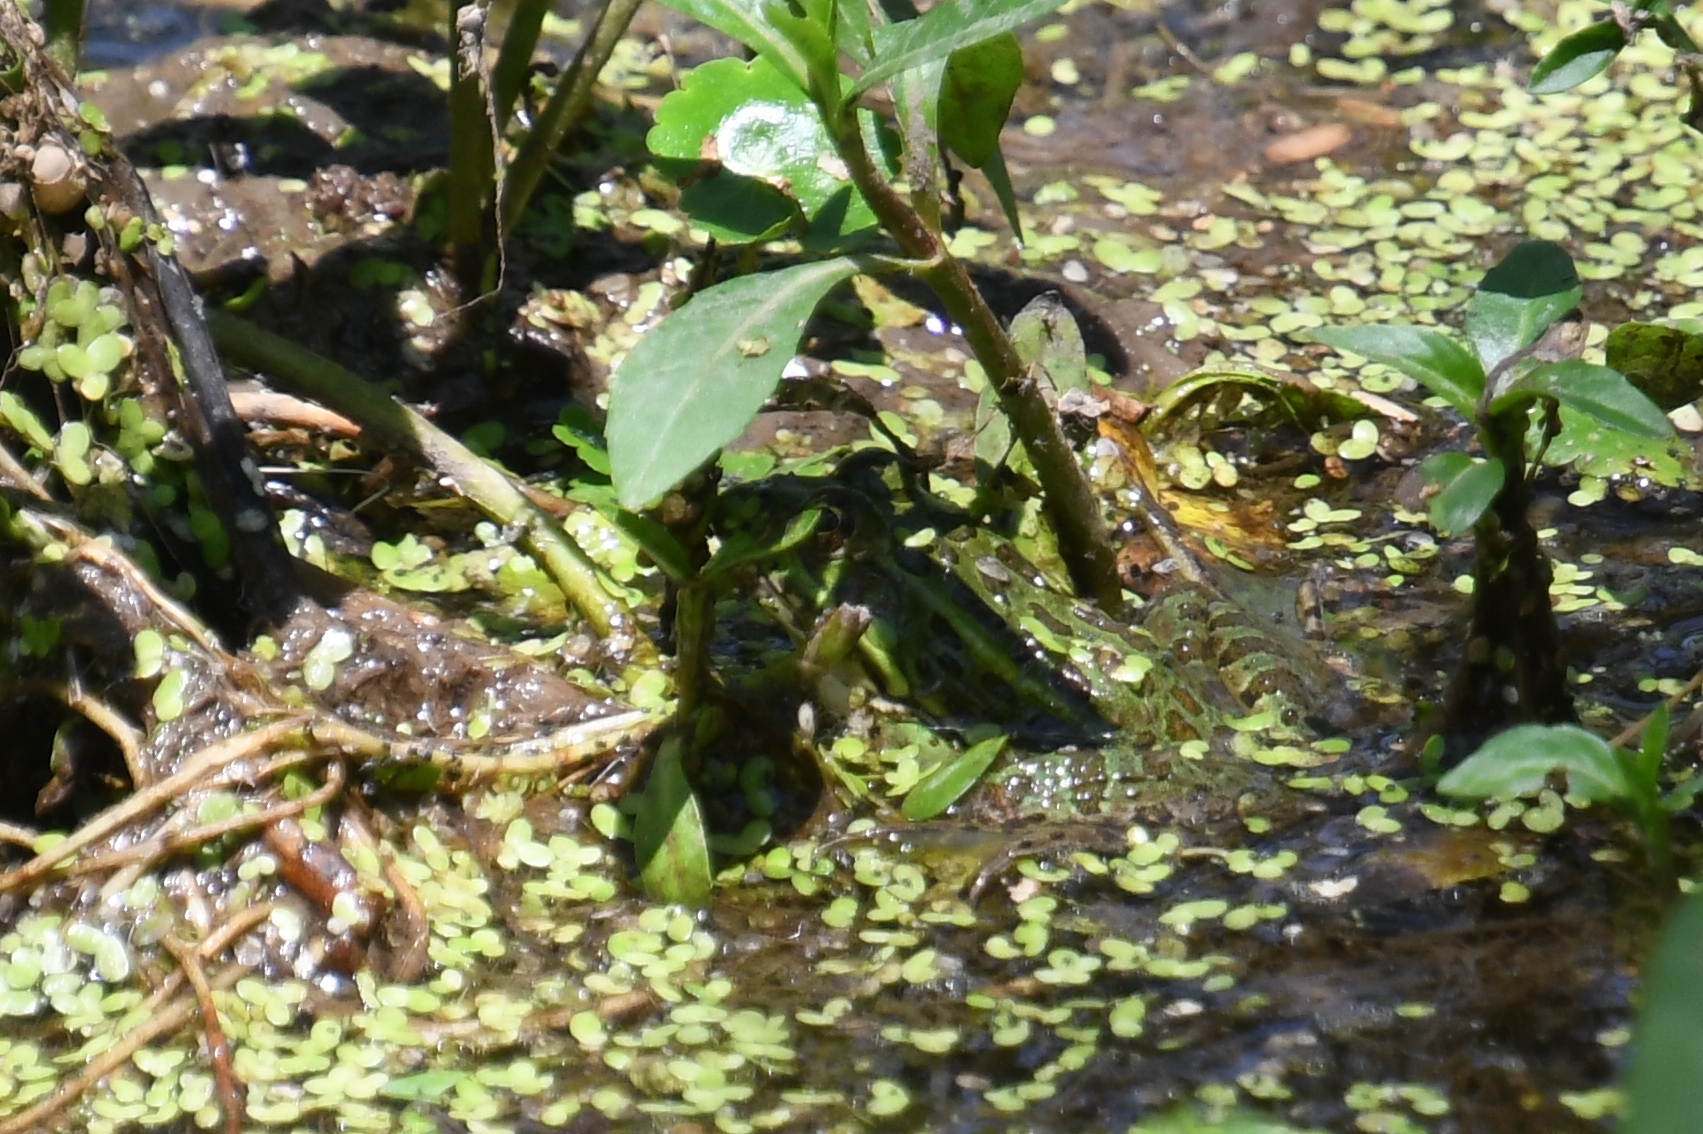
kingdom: Animalia
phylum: Chordata
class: Amphibia
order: Anura
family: Ranidae
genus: Lithobates
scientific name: Lithobates chiricahuensis
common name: Chiricahua leopard frog
